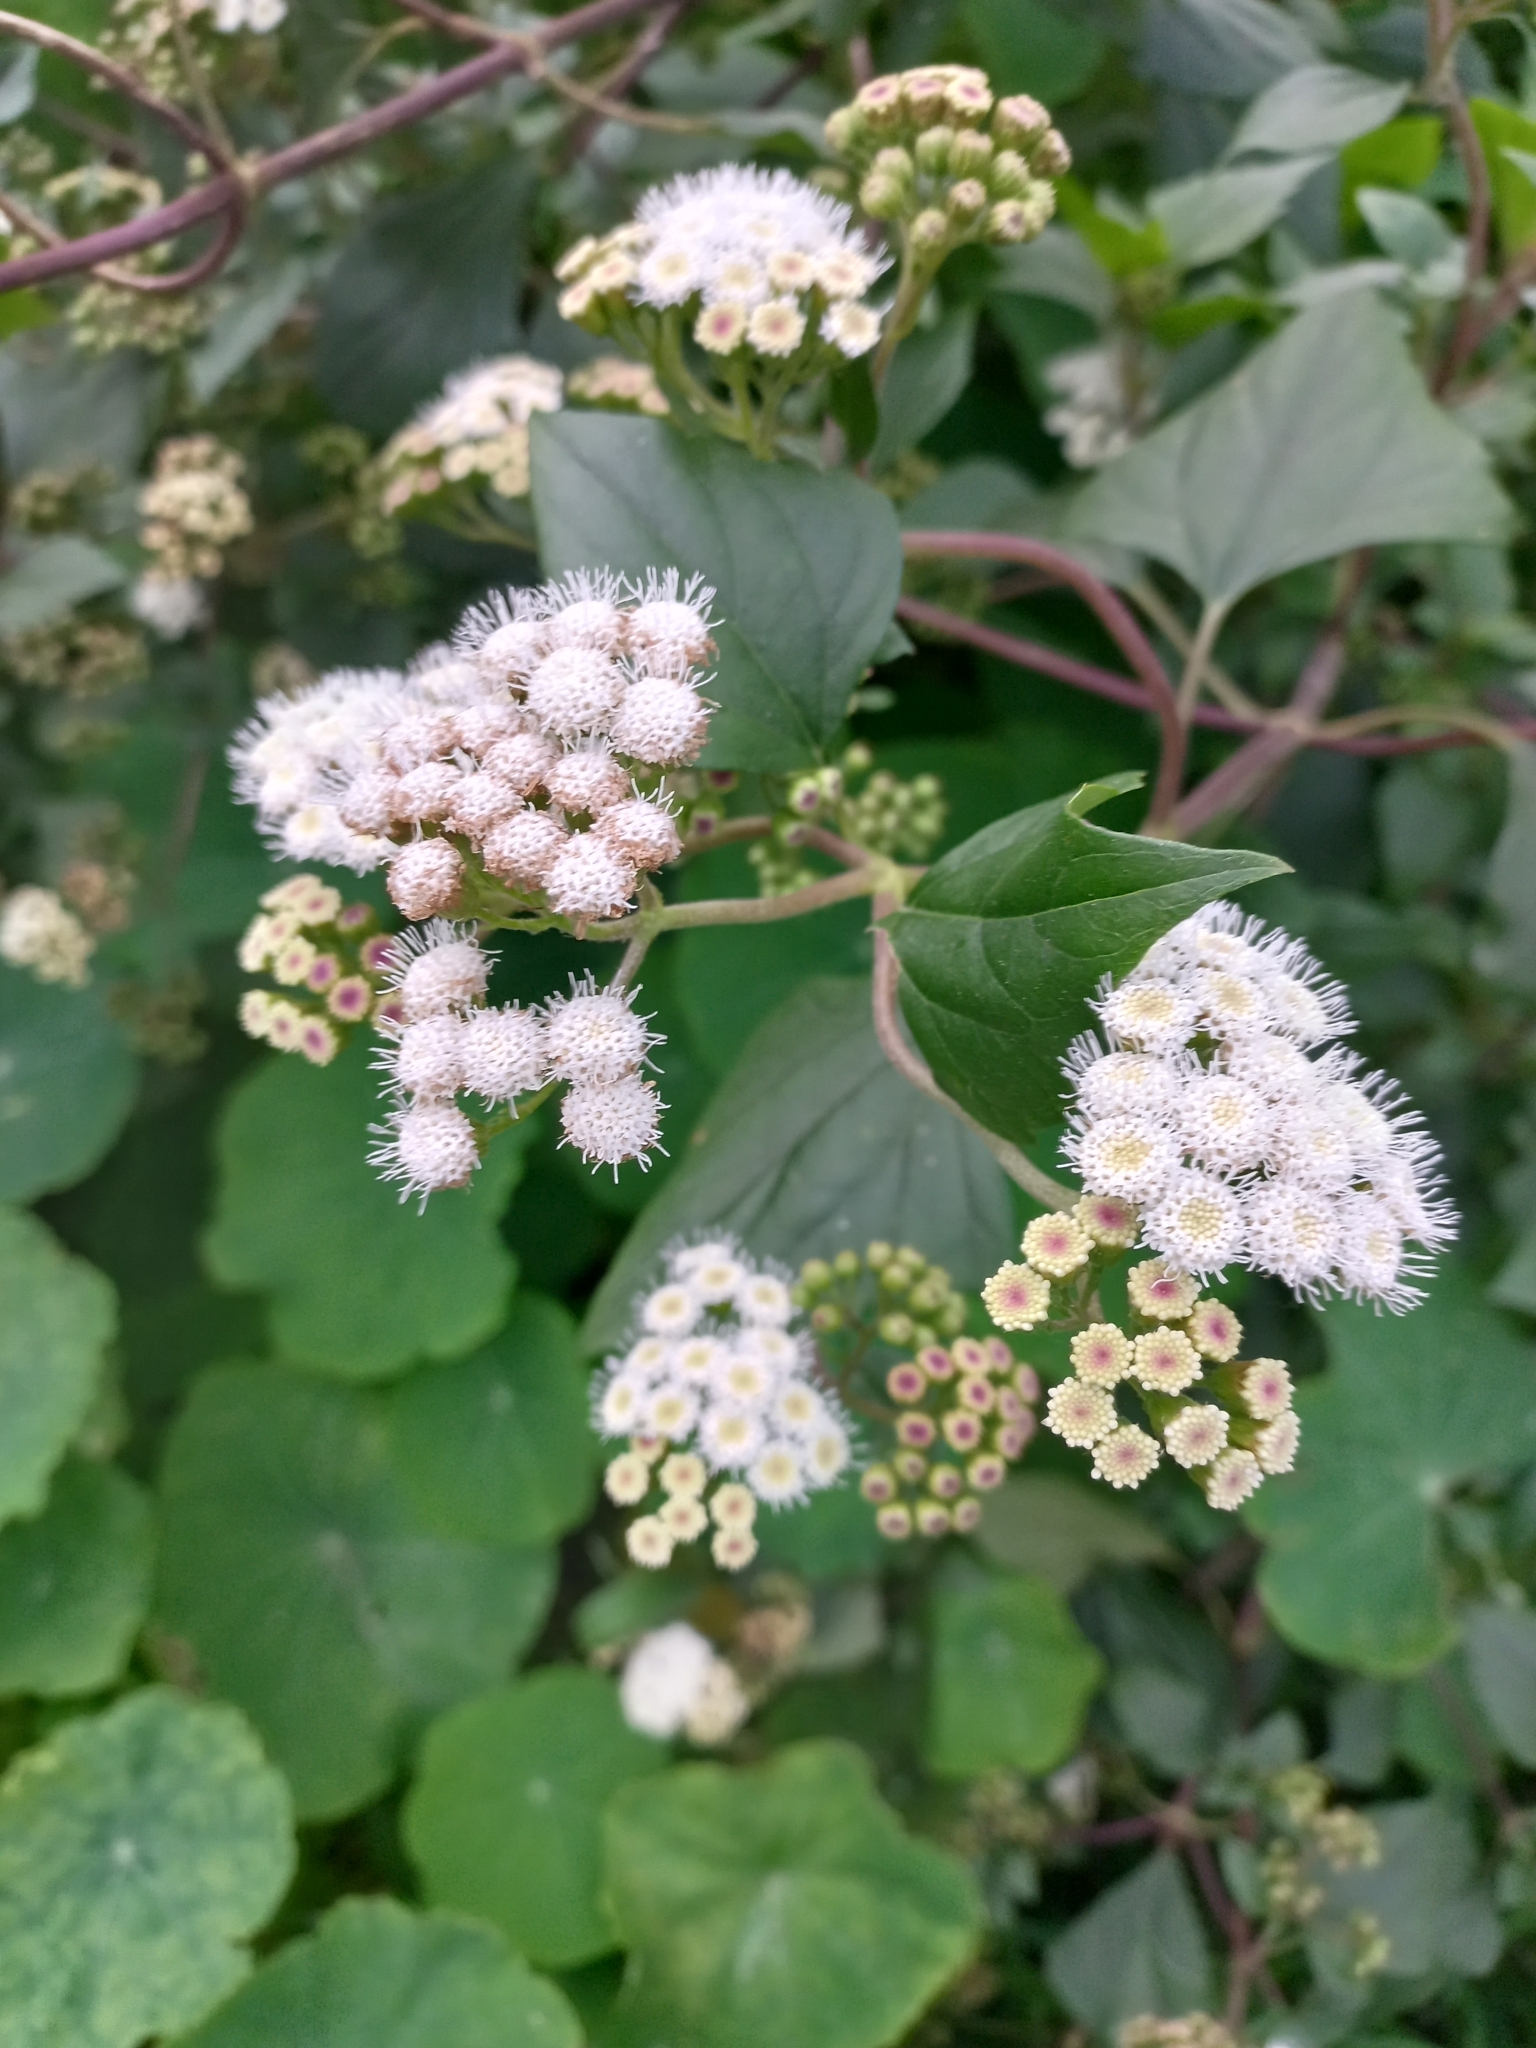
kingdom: Plantae
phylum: Tracheophyta
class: Magnoliopsida
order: Asterales
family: Asteraceae
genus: Ageratina
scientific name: Ageratina adenophora
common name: Sticky snakeroot
